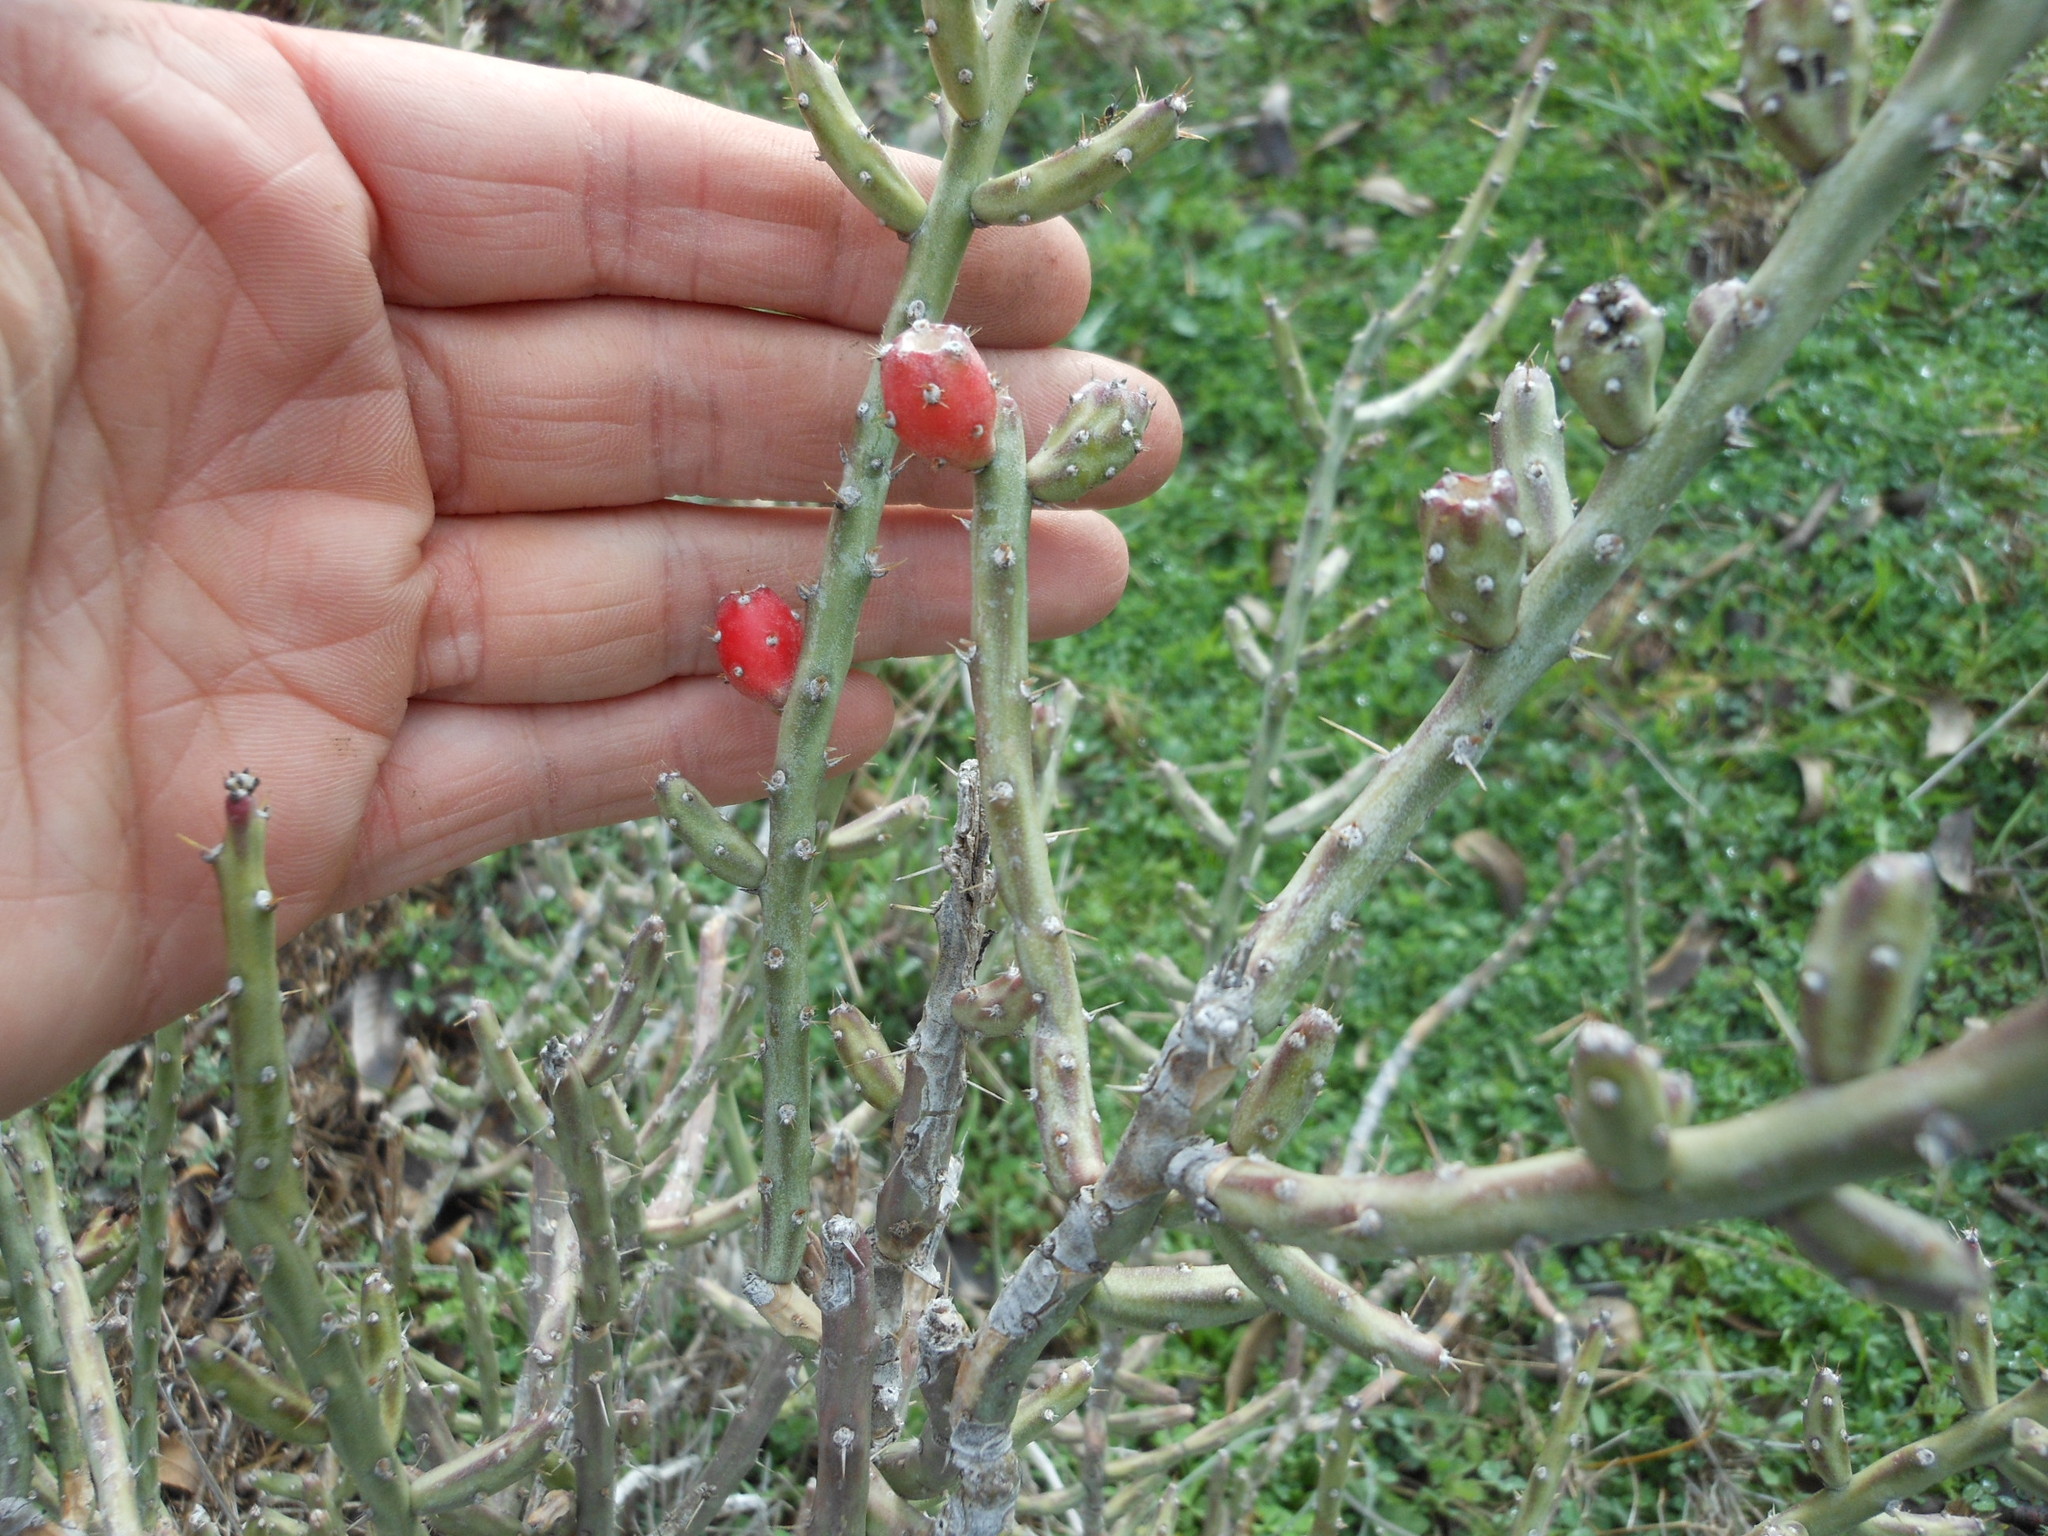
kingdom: Plantae
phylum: Tracheophyta
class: Magnoliopsida
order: Caryophyllales
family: Cactaceae
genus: Cylindropuntia
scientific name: Cylindropuntia leptocaulis
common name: Christmas cactus
